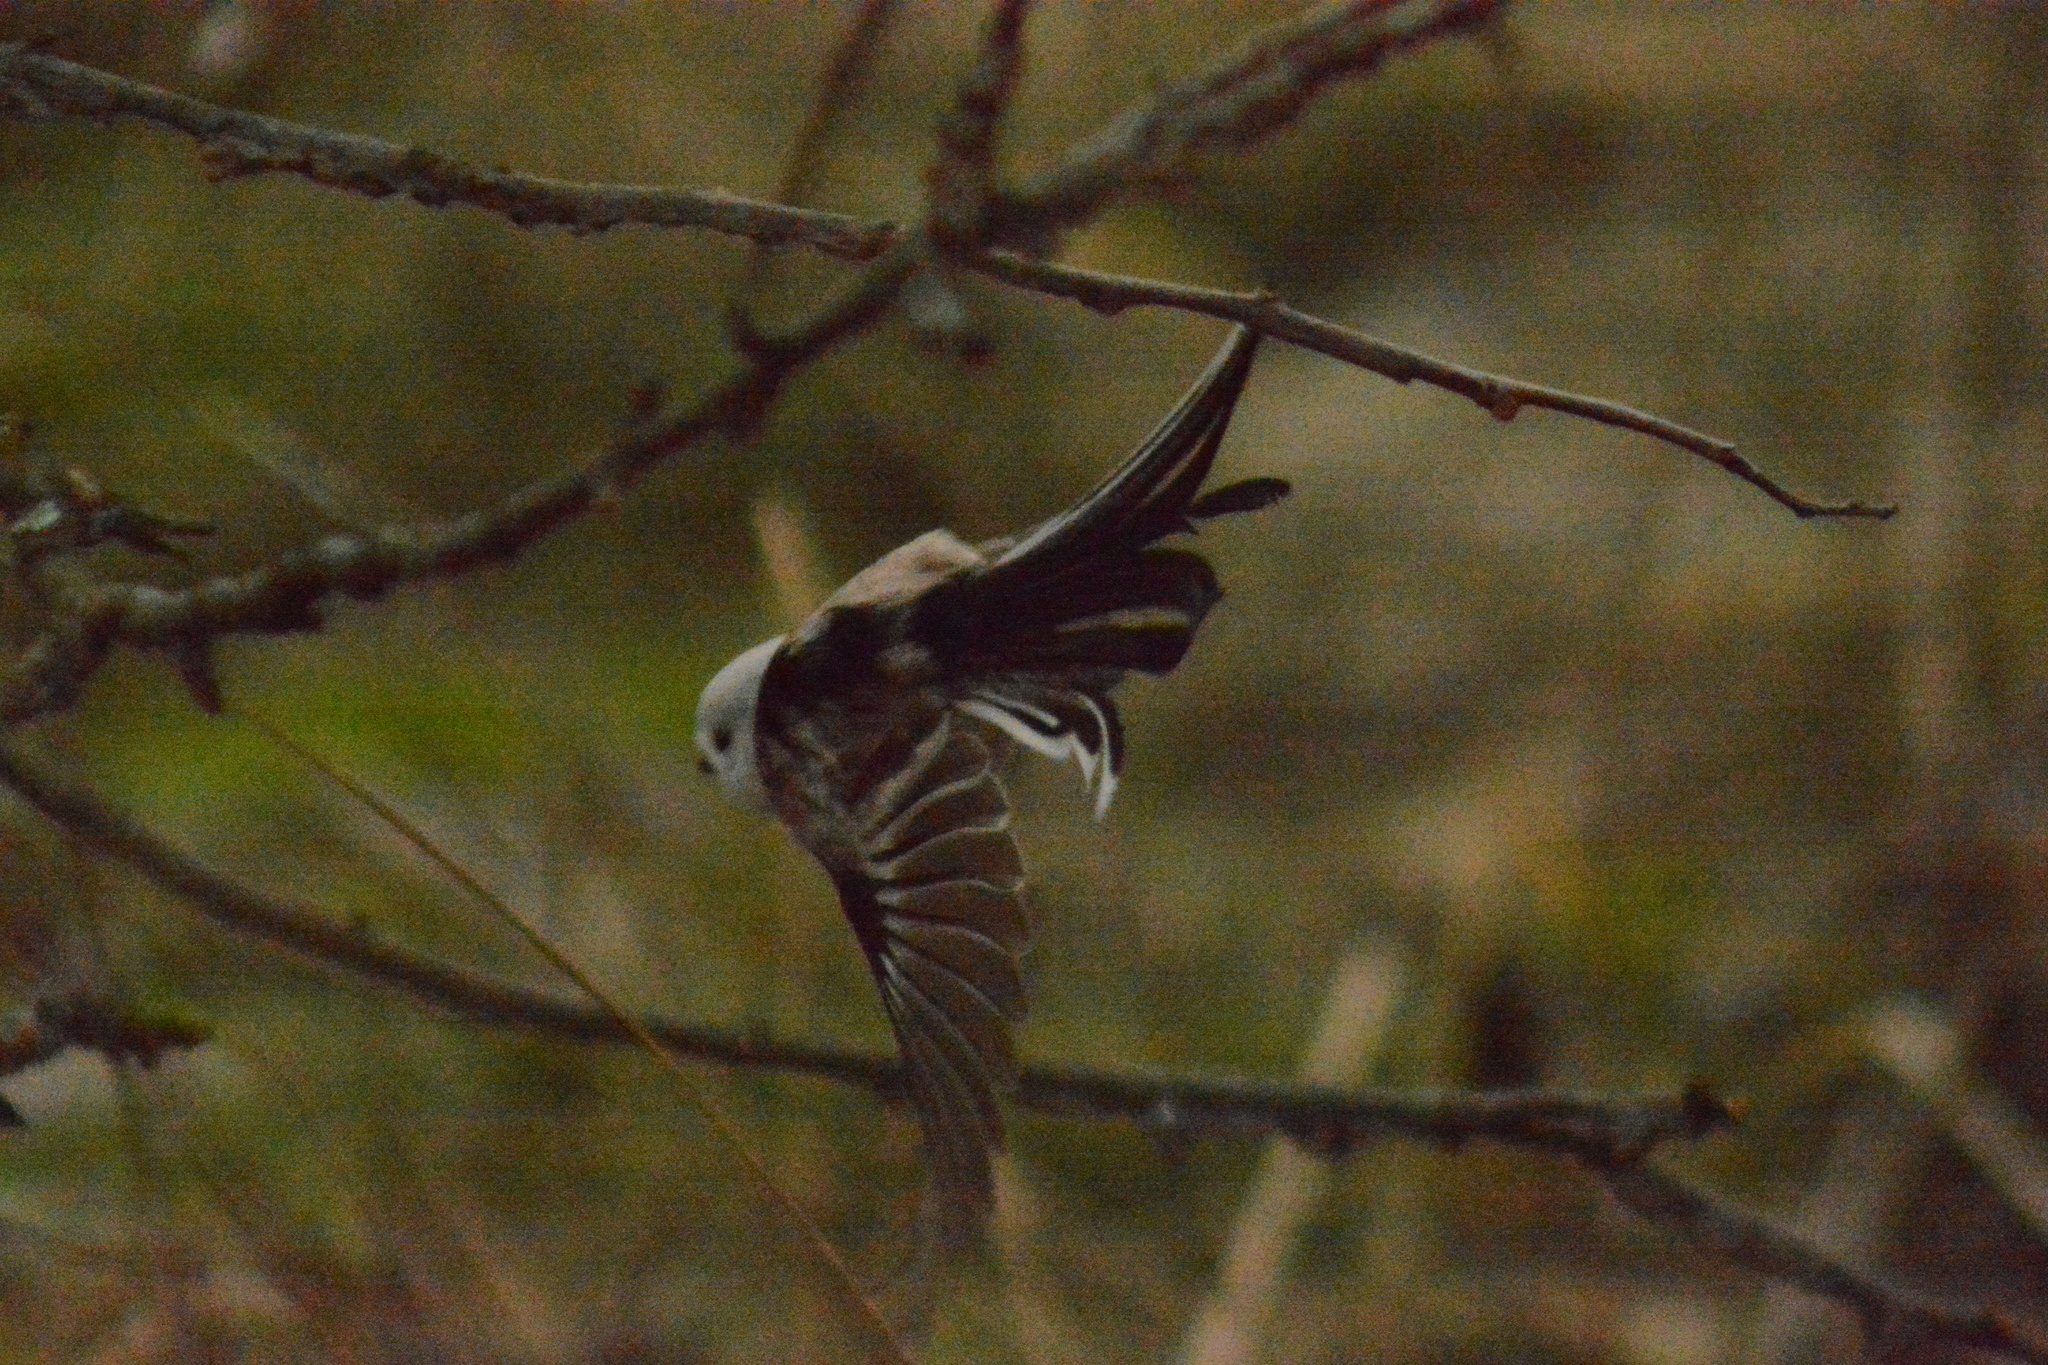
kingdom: Animalia
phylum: Chordata
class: Aves
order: Passeriformes
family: Aegithalidae
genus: Aegithalos
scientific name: Aegithalos caudatus
